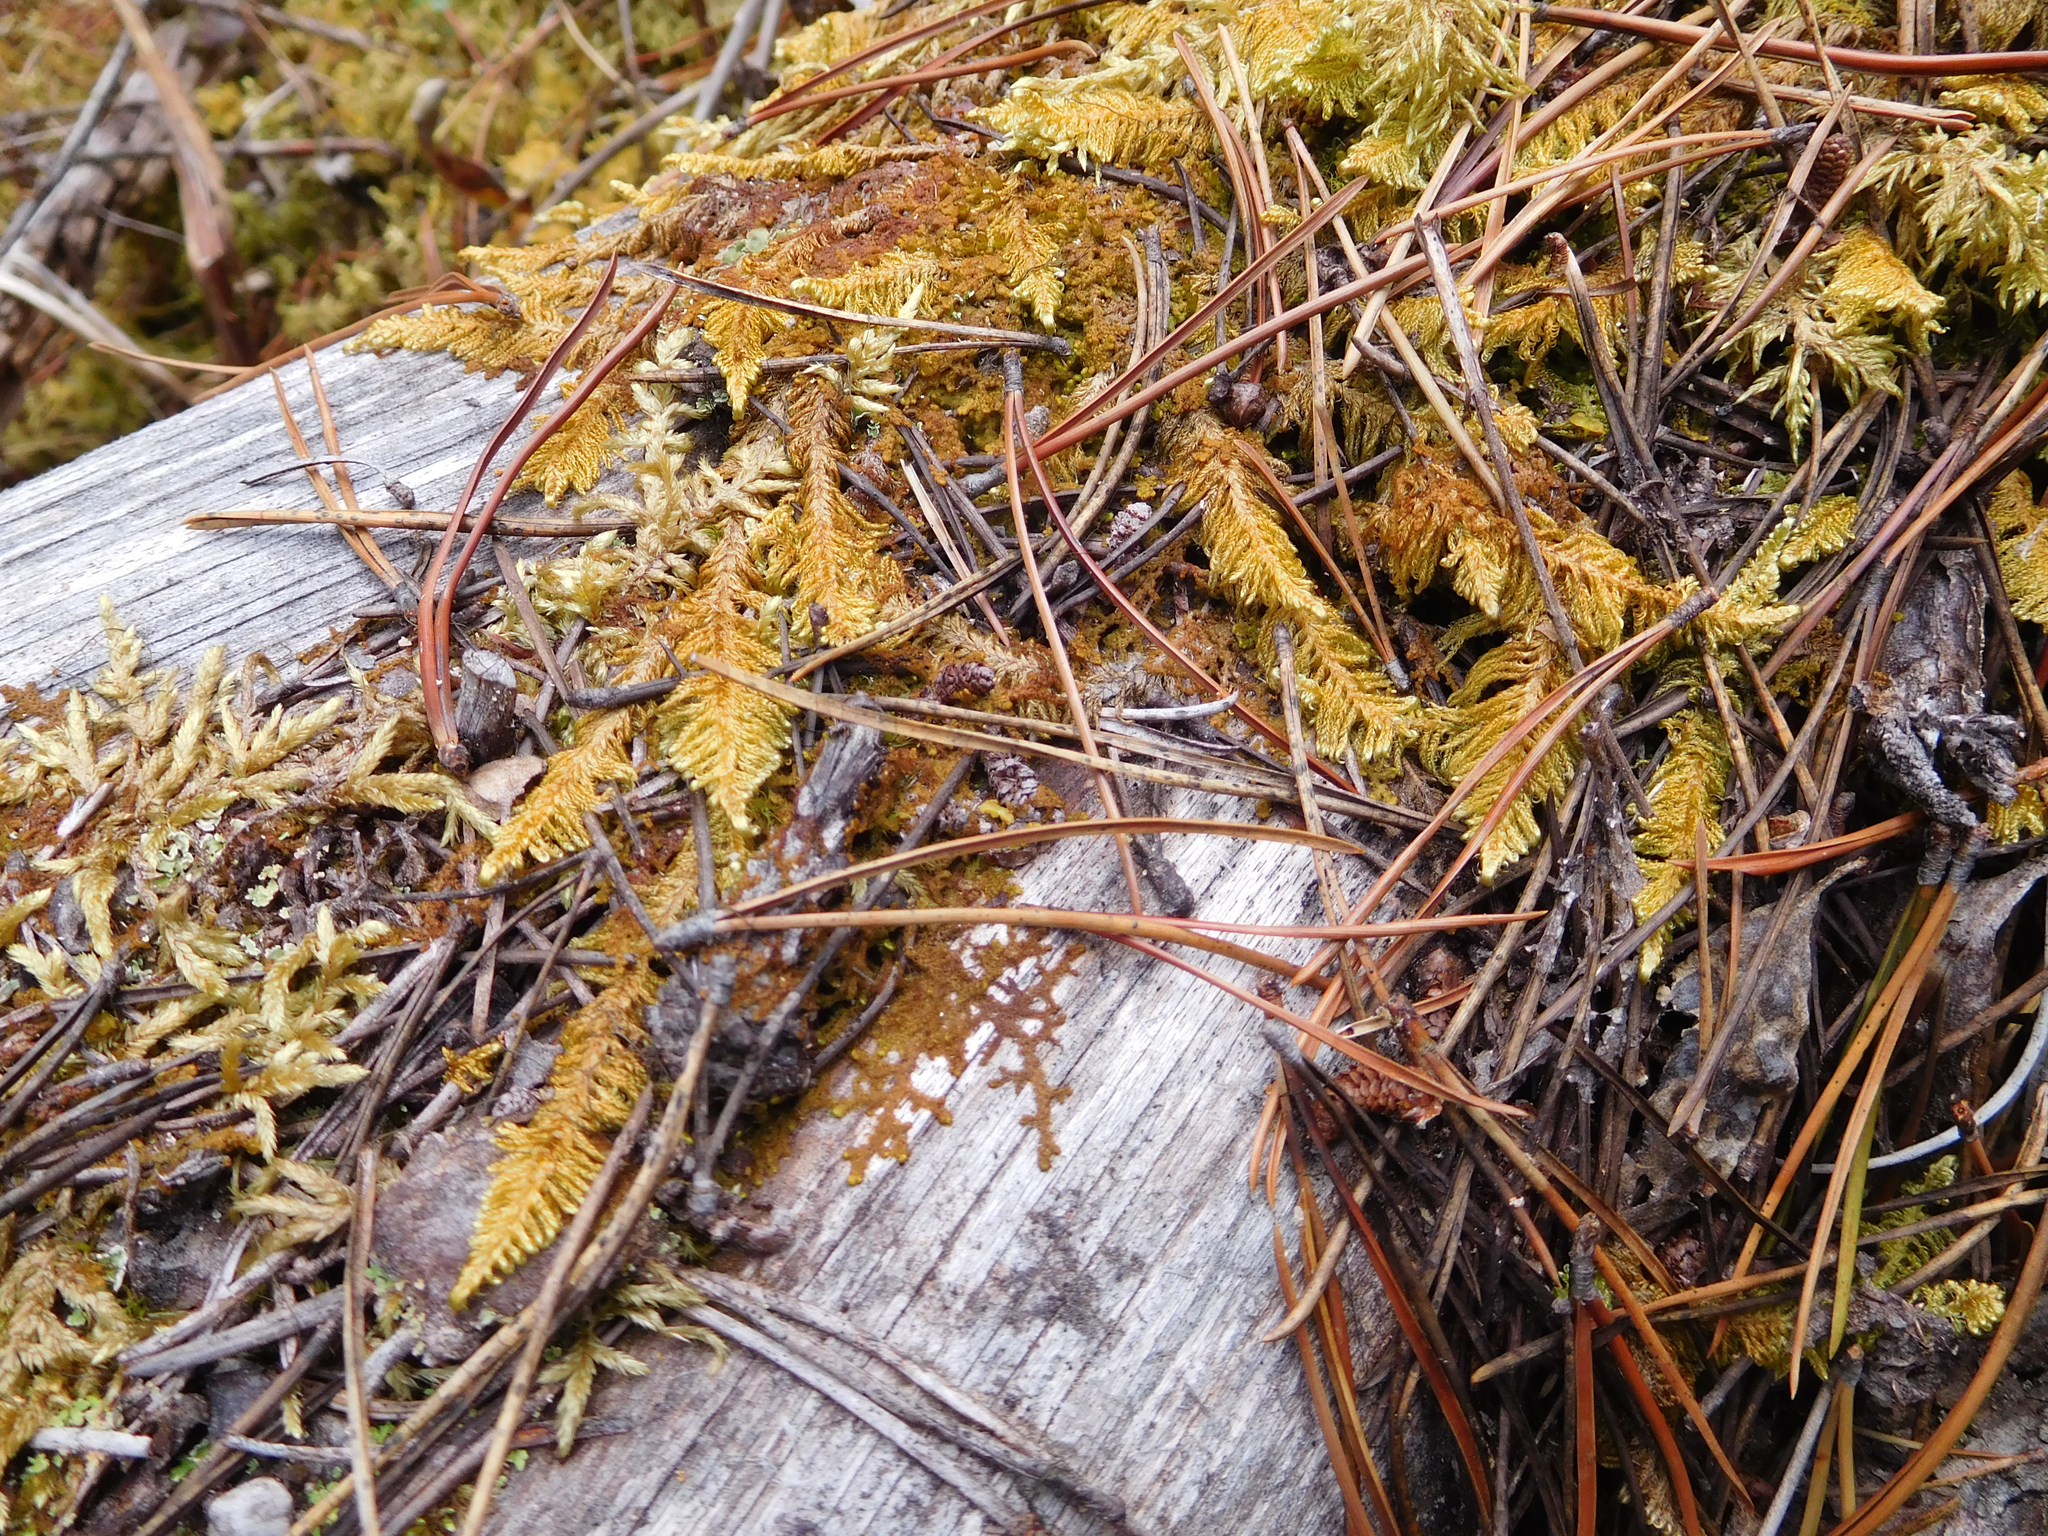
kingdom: Plantae
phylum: Bryophyta
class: Bryopsida
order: Hypnales
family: Pylaisiaceae
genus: Ptilium
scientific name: Ptilium crista-castrensis
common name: Knight's plume moss
